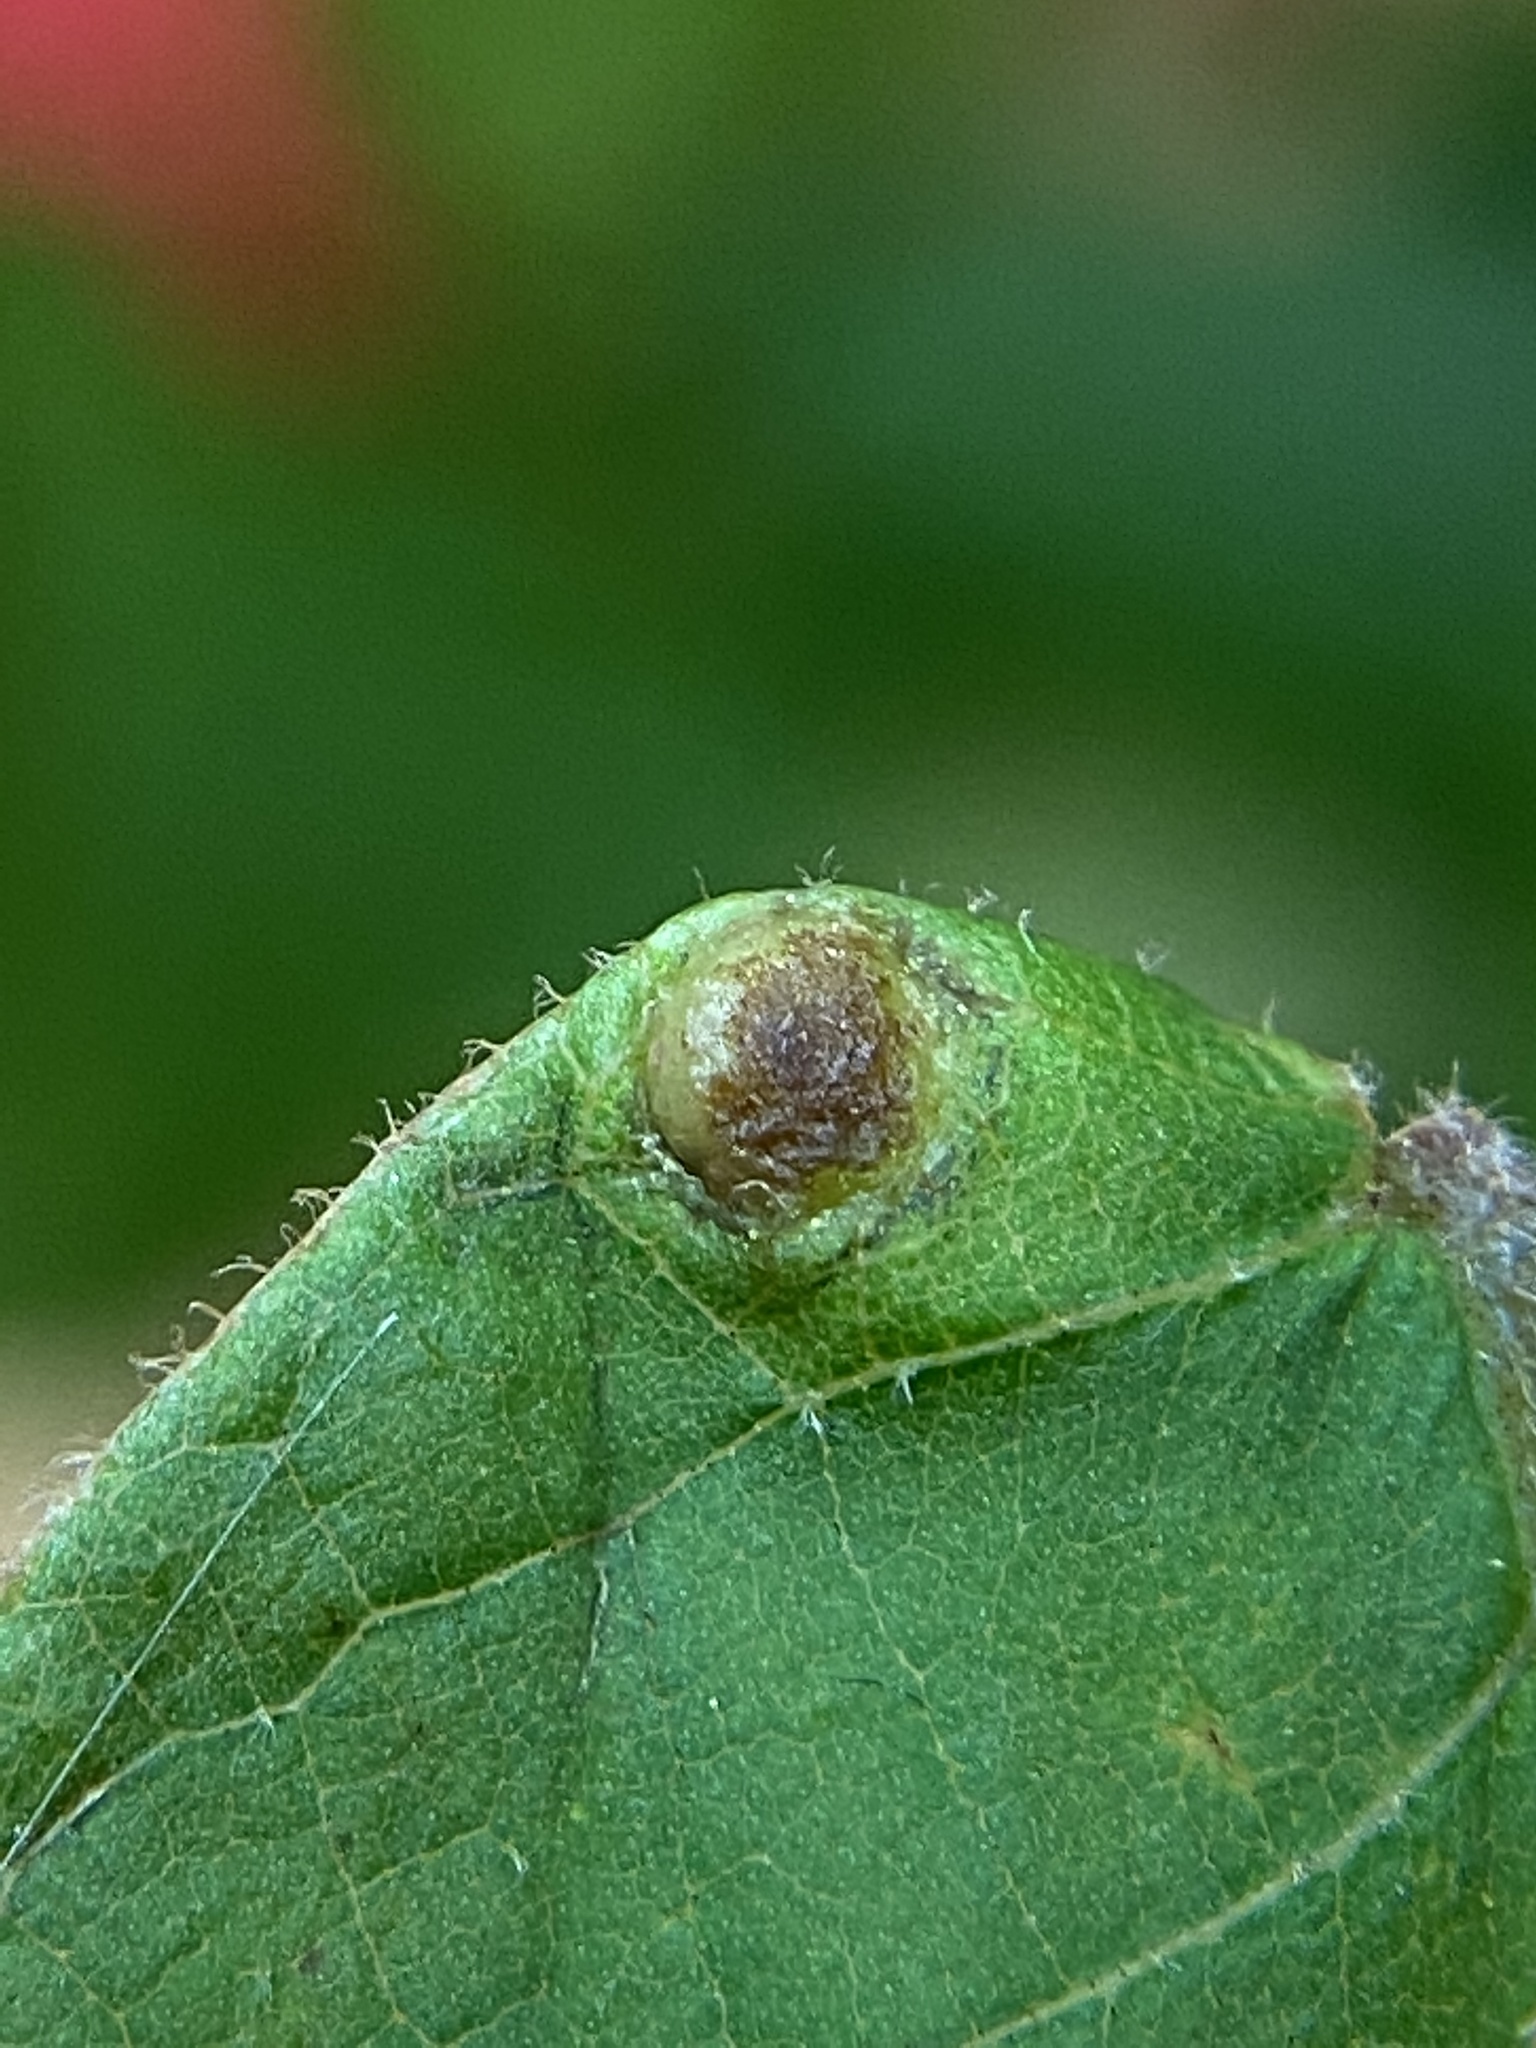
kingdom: Animalia
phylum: Arthropoda
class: Insecta
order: Hemiptera
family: Phylloxeridae
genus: Phylloxera
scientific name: Phylloxera caryae-avellana
